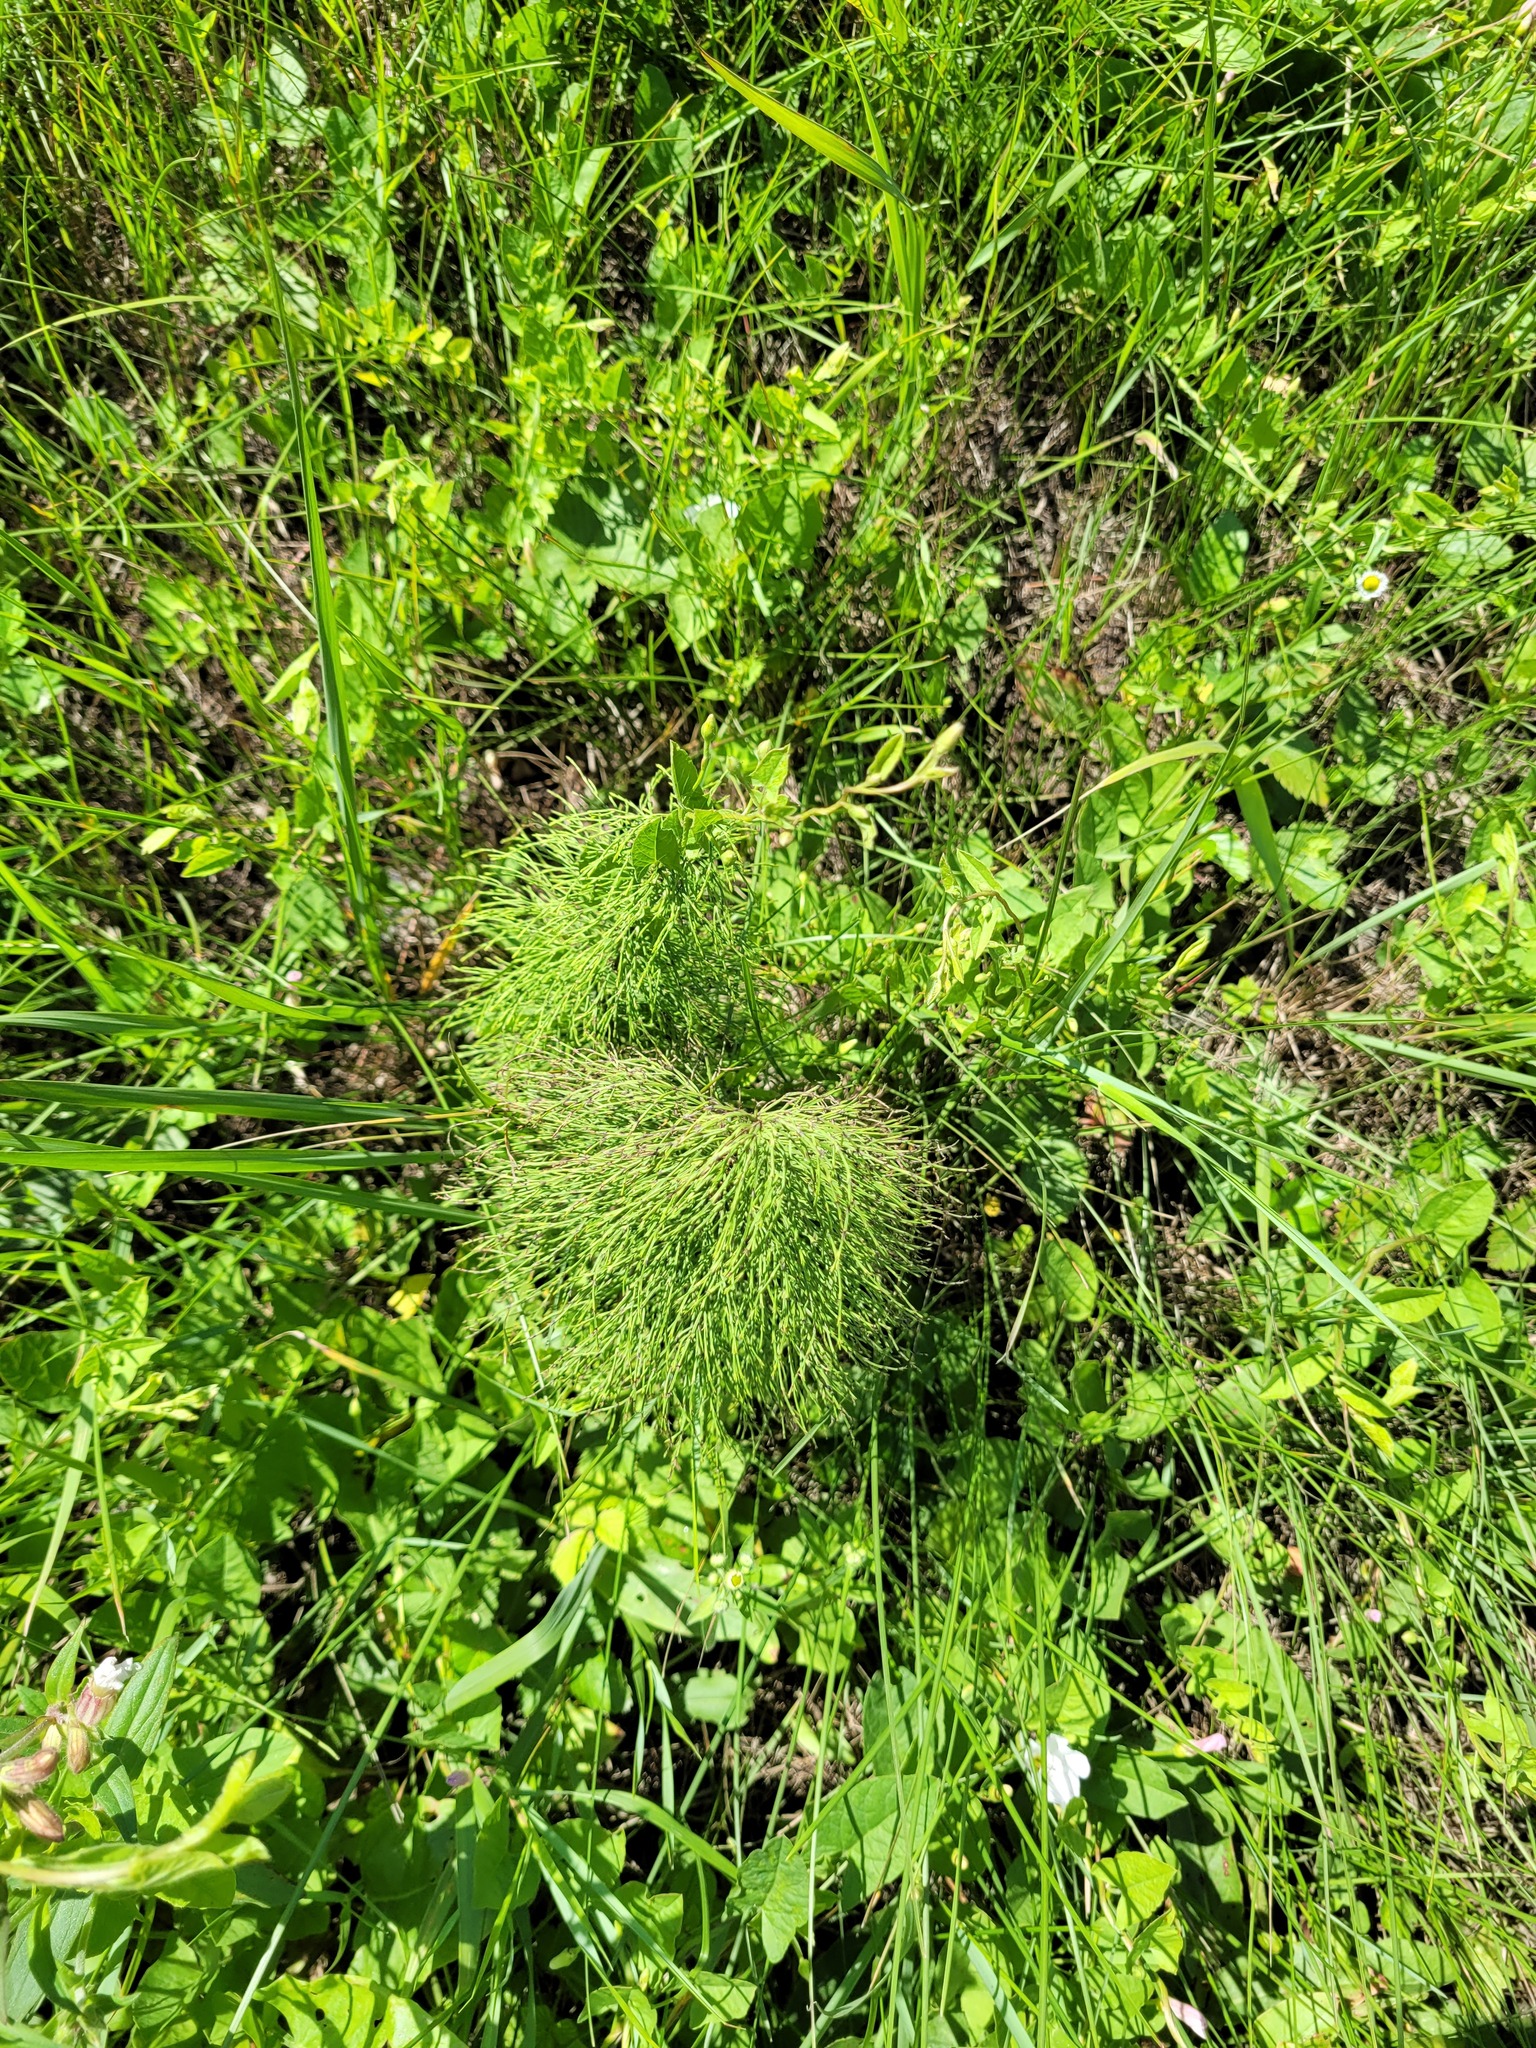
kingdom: Plantae
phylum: Tracheophyta
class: Polypodiopsida
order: Equisetales
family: Equisetaceae
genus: Equisetum
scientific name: Equisetum sylvaticum
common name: Wood horsetail
